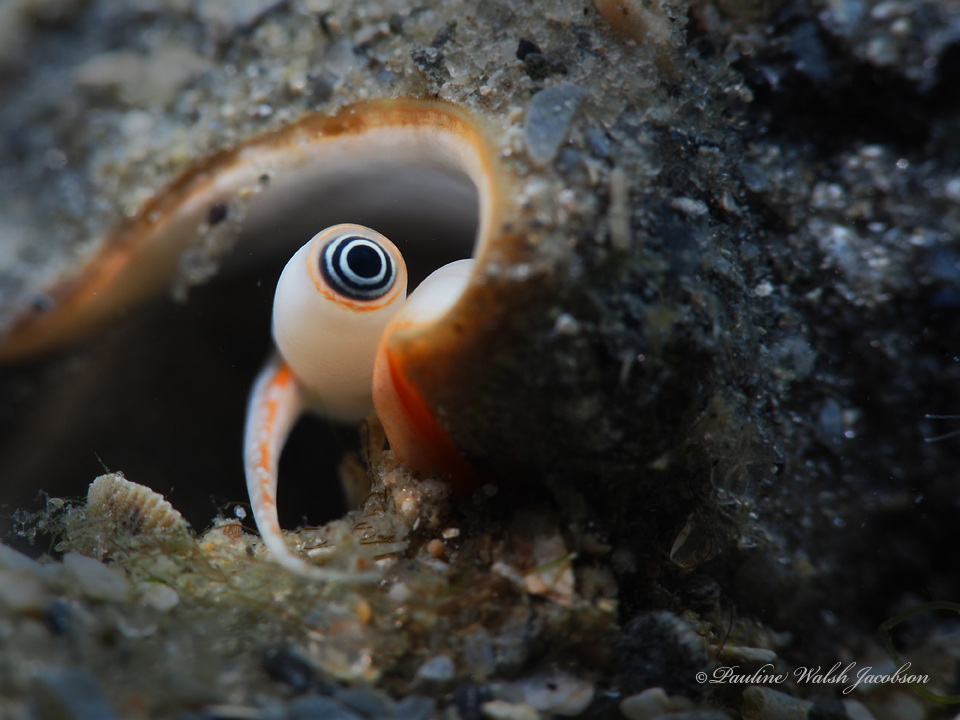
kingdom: Animalia
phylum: Mollusca
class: Gastropoda
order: Littorinimorpha
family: Strombidae
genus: Strombus
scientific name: Strombus alatus
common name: Florida fighting conch
